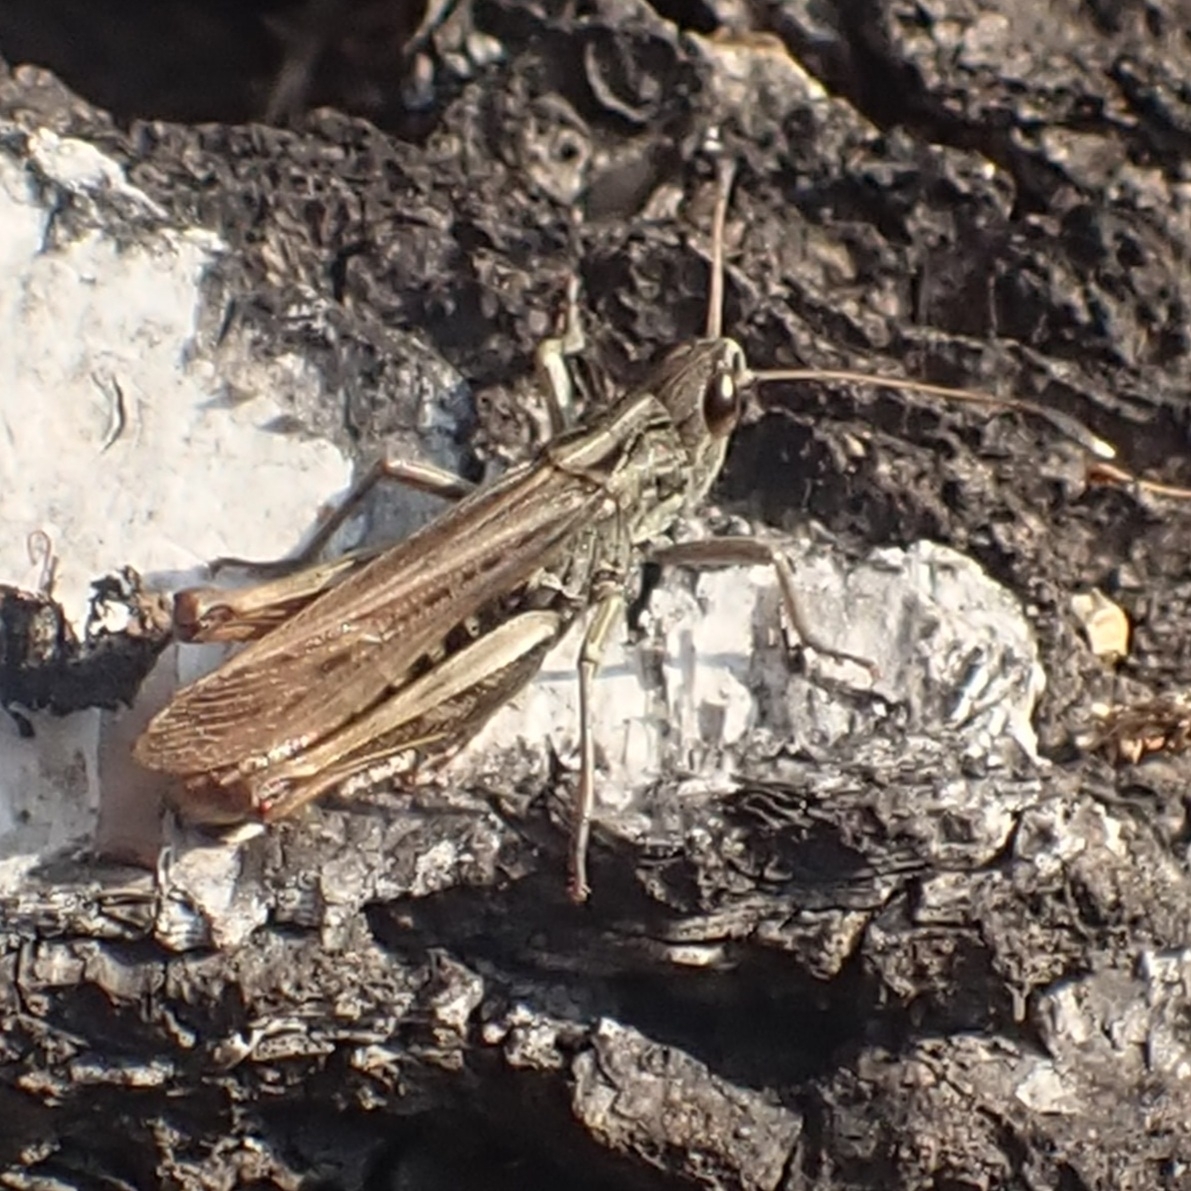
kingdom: Animalia
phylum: Arthropoda
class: Insecta
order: Orthoptera
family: Acrididae
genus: Gomphocerippus
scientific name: Gomphocerippus rufus
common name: Rufous grasshopper
